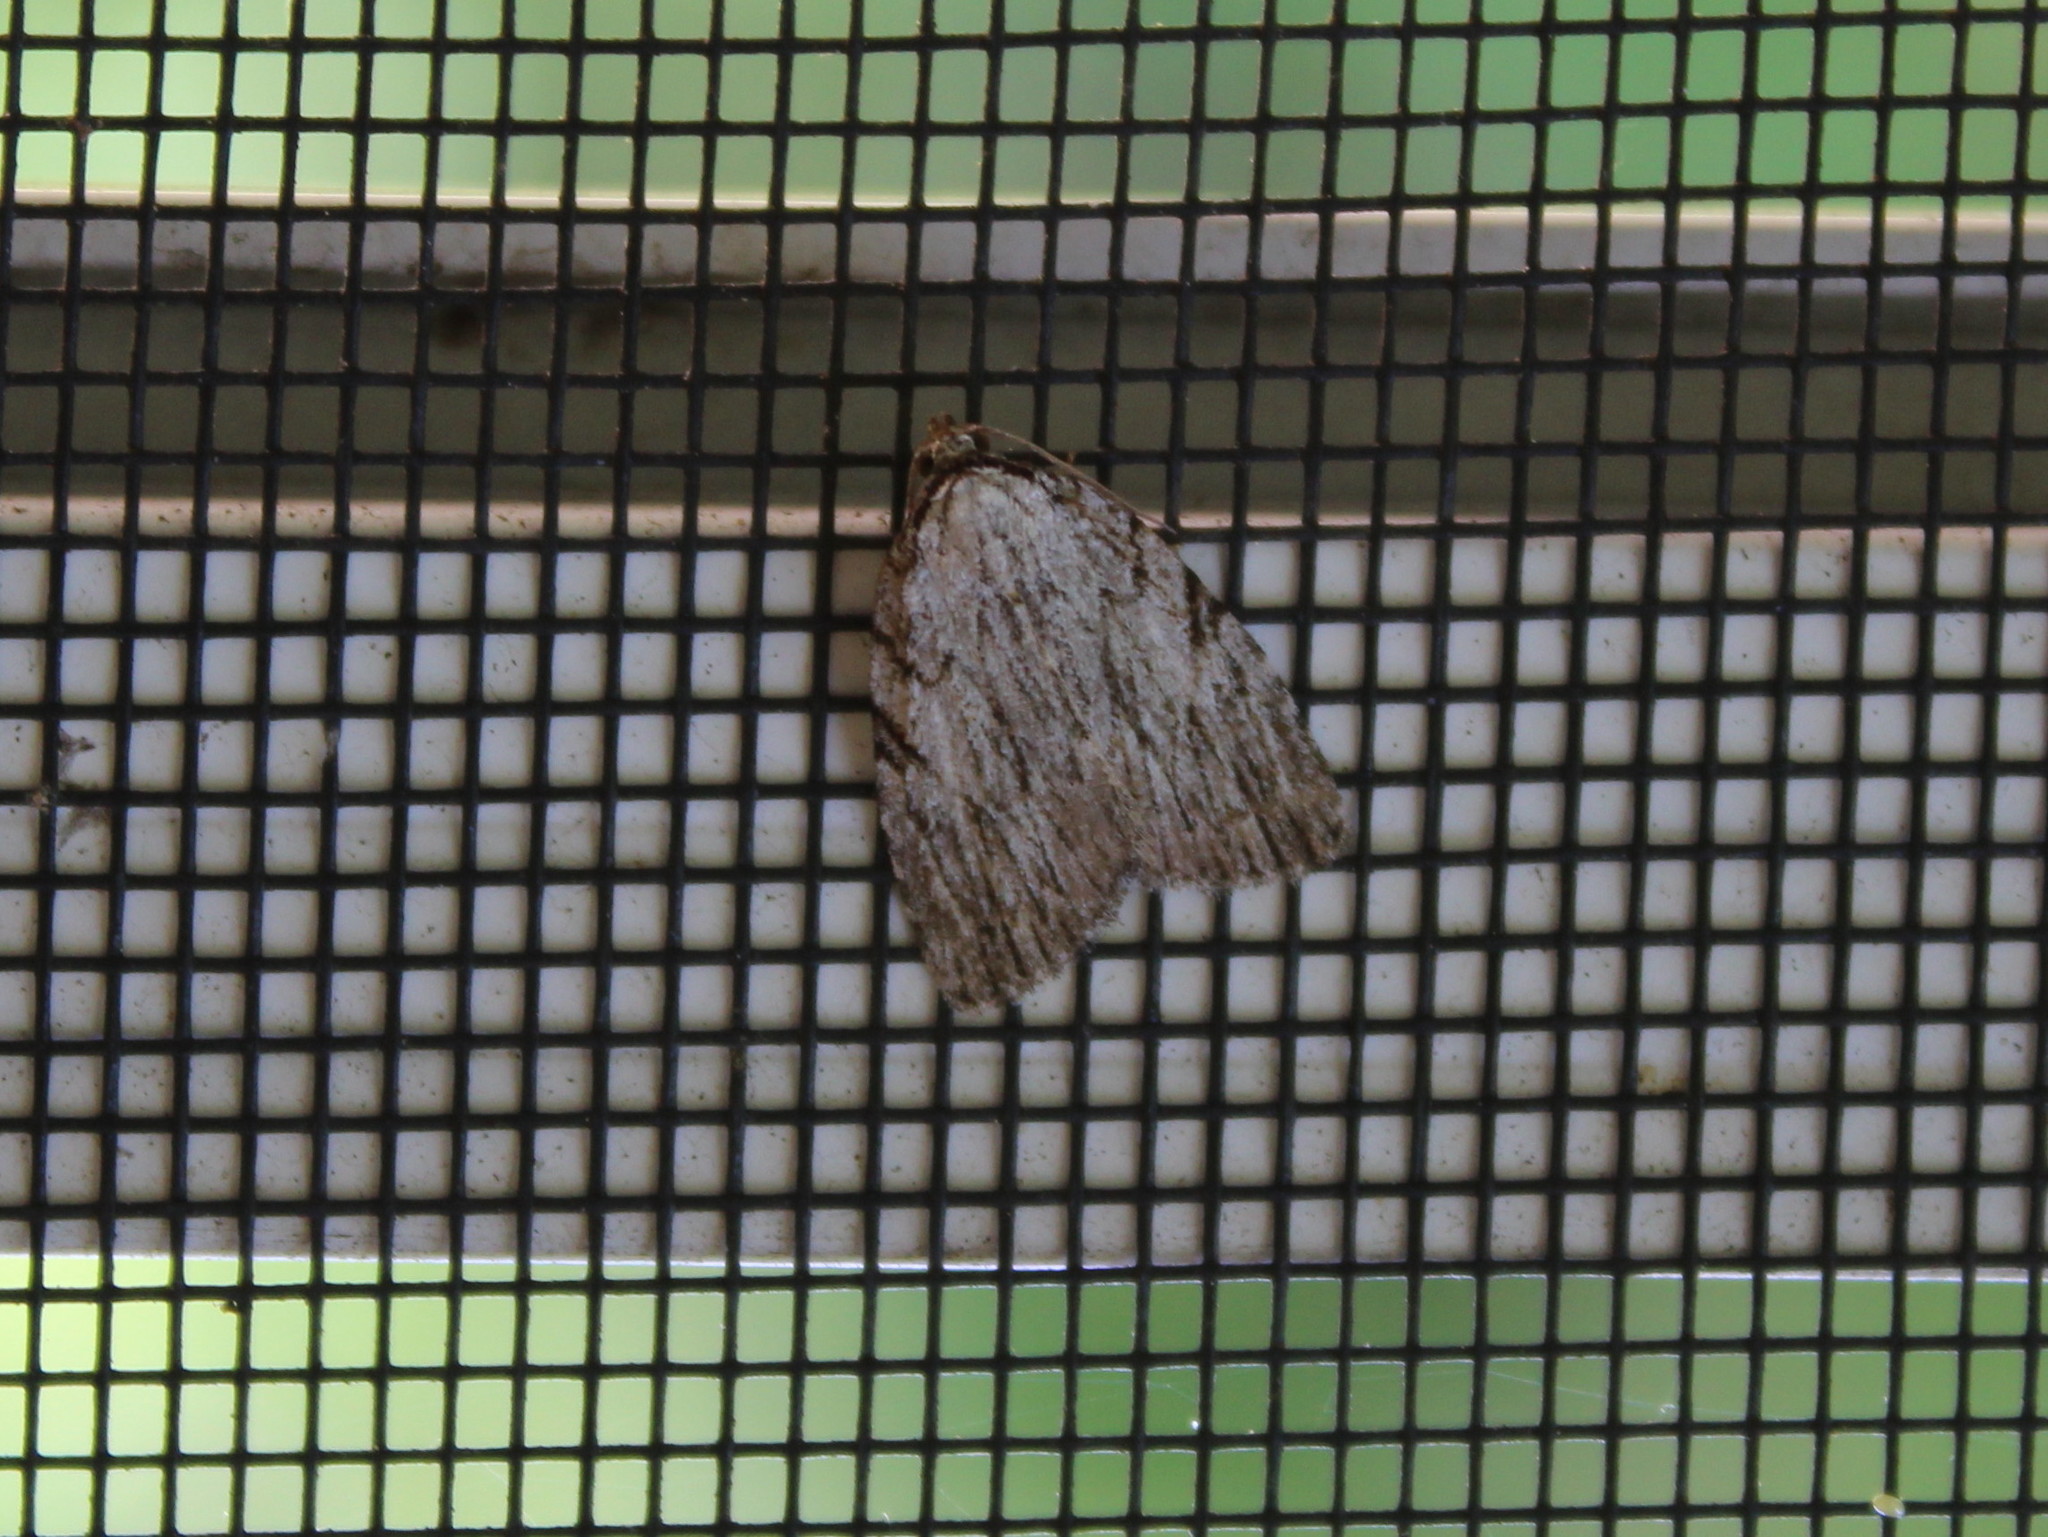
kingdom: Animalia
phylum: Arthropoda
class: Insecta
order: Lepidoptera
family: Noctuidae
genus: Balsa
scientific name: Balsa tristrigella
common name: Three-lined balsa moth
